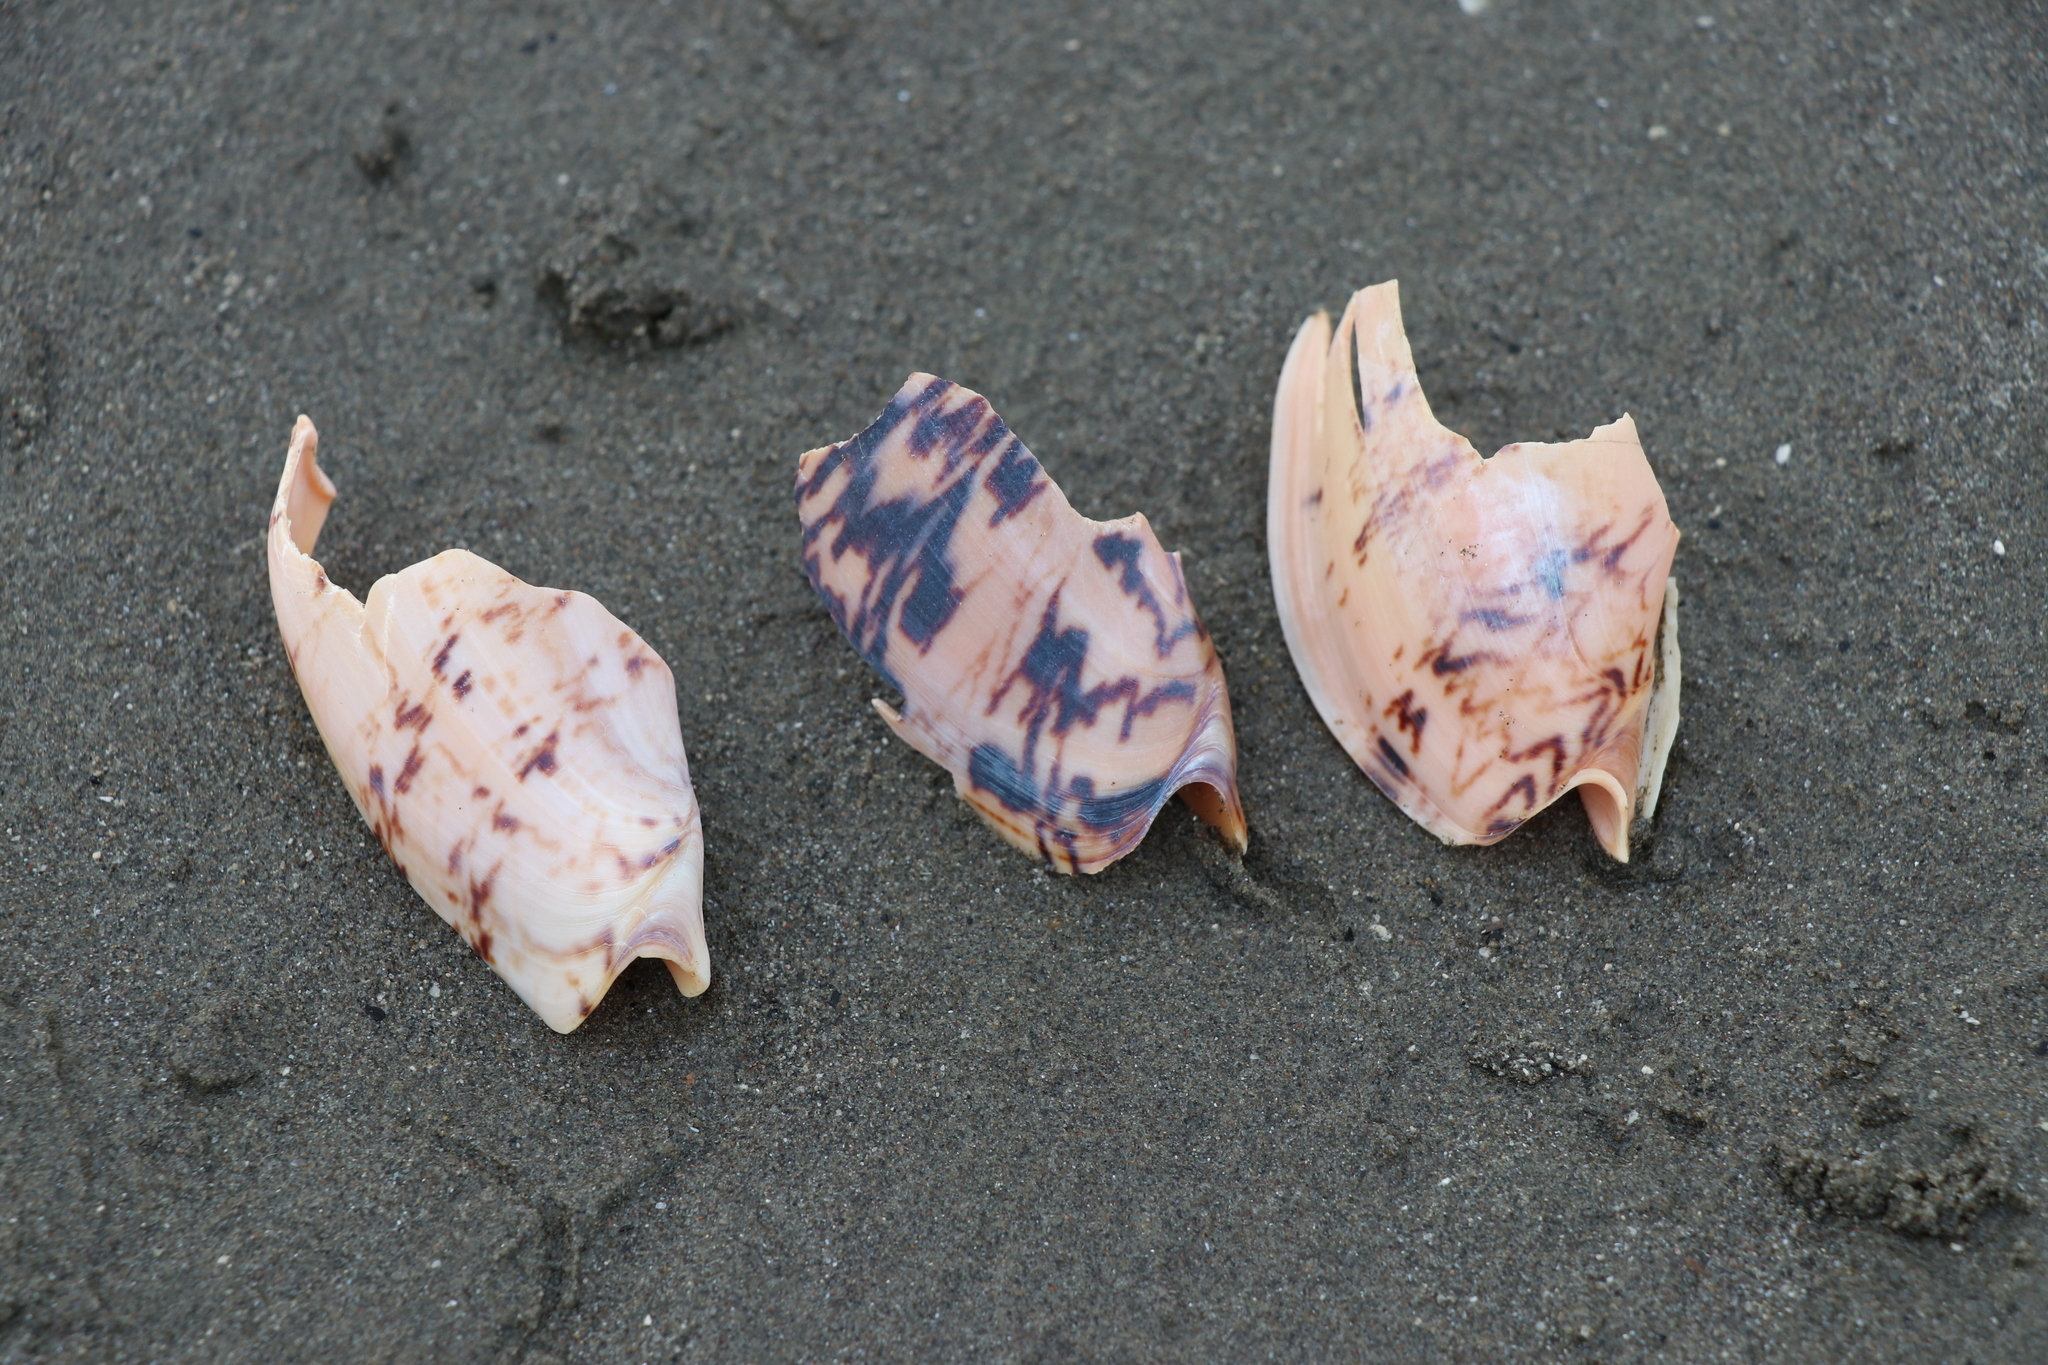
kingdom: Animalia
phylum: Mollusca
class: Gastropoda
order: Neogastropoda
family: Volutidae
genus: Alcithoe
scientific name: Alcithoe arabica
